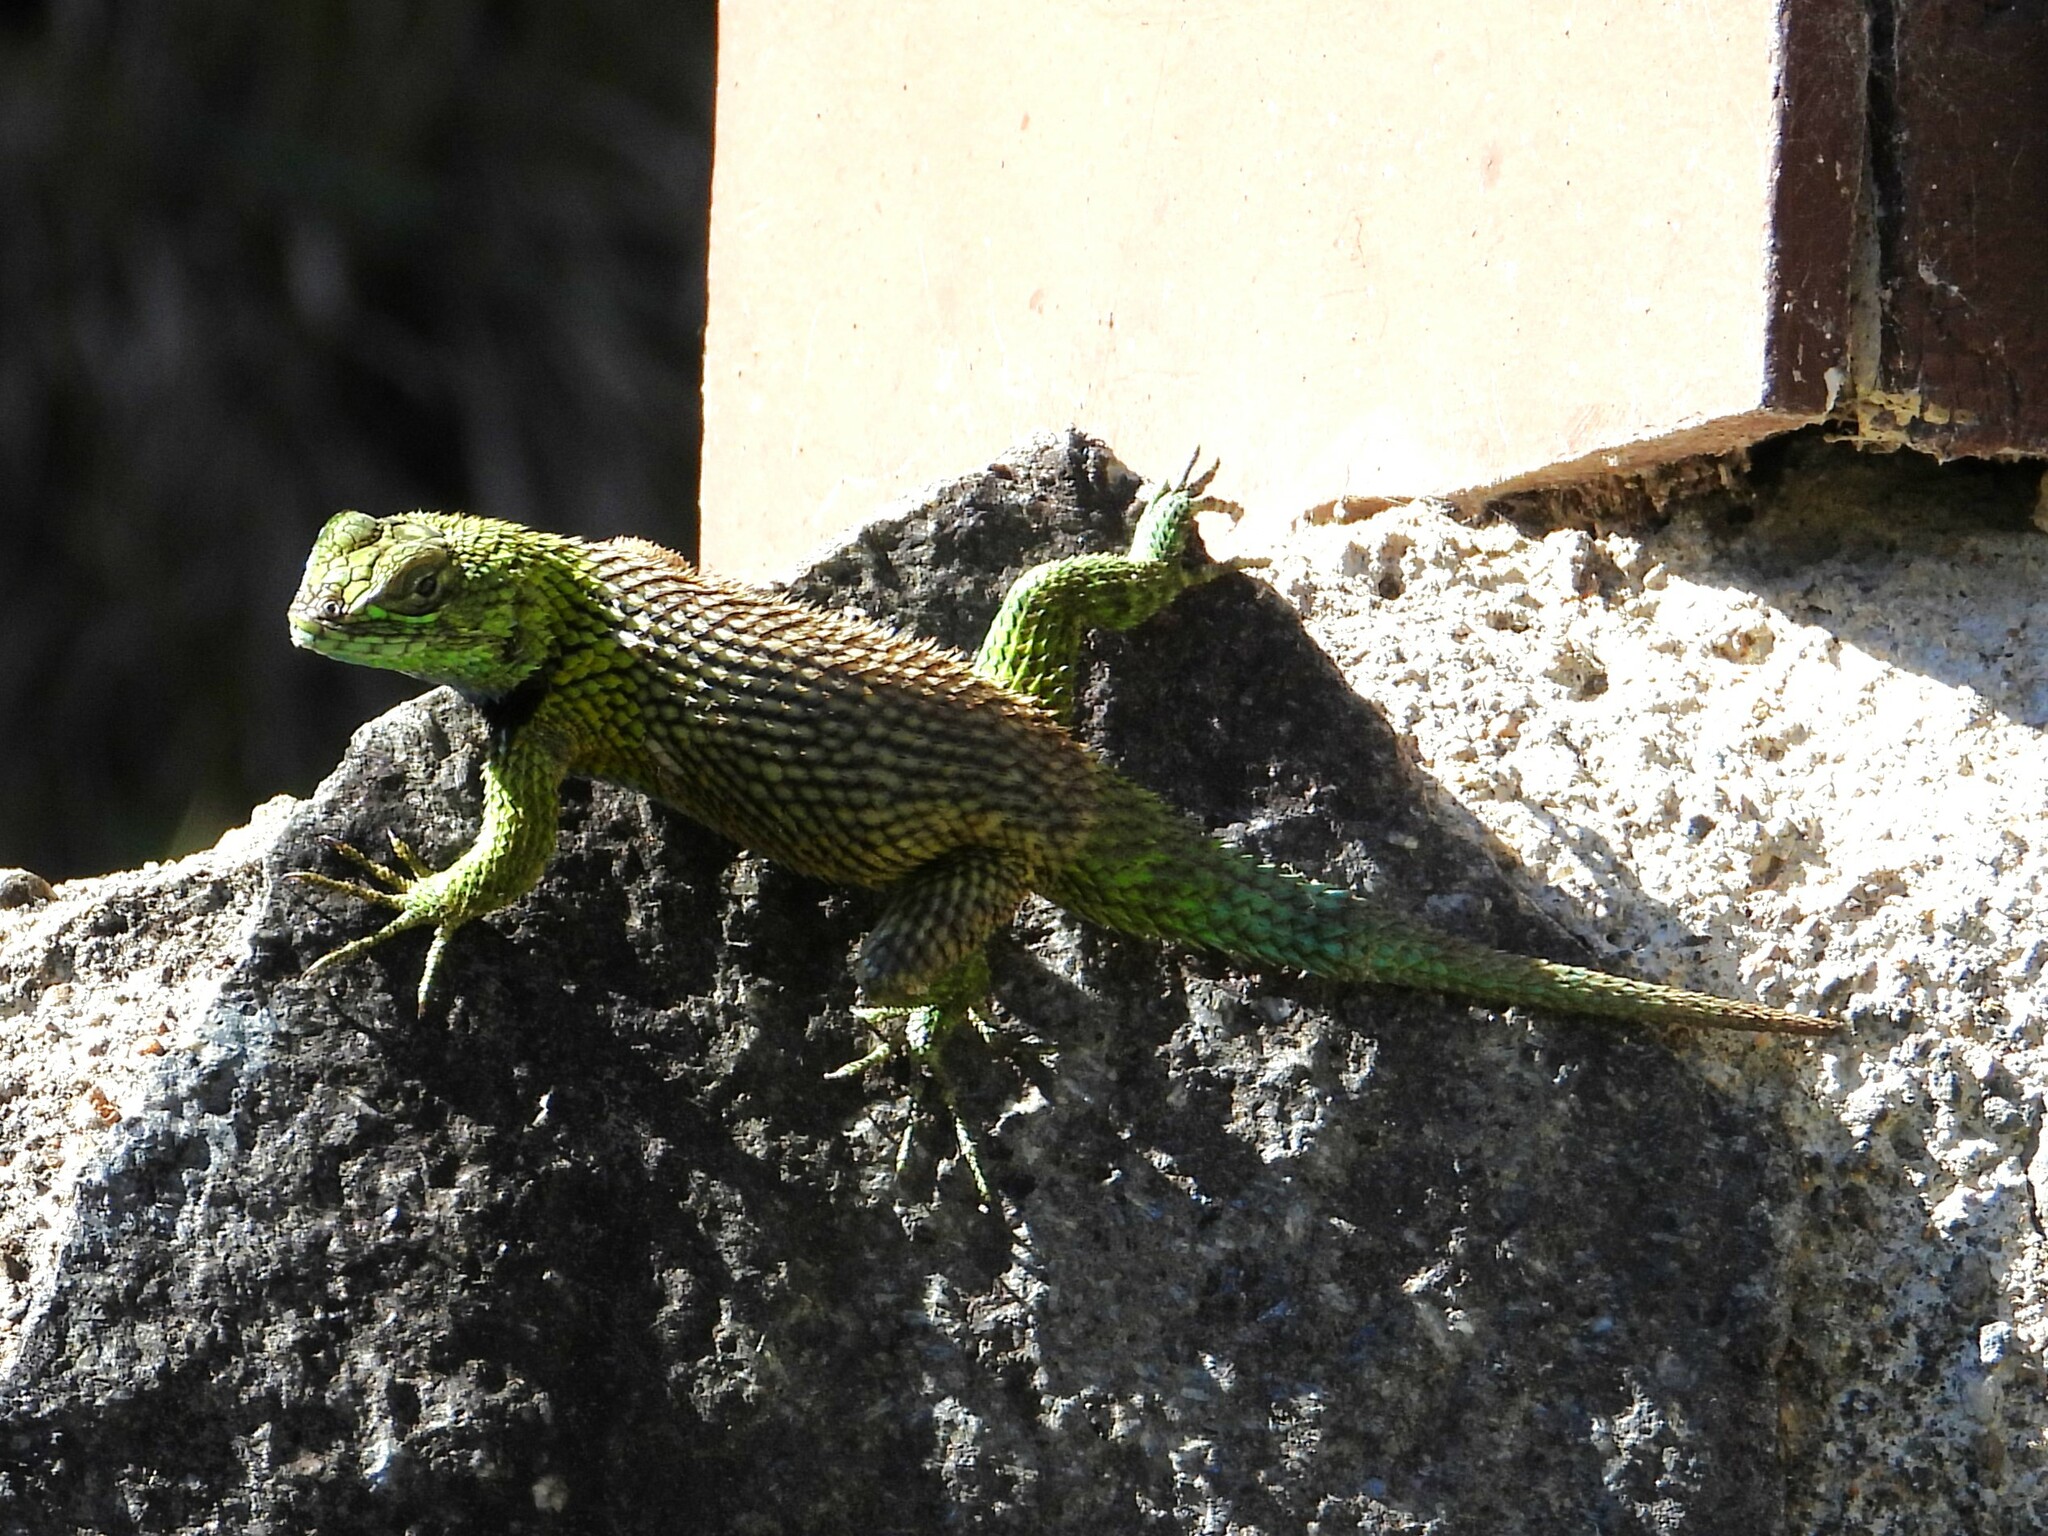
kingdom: Animalia
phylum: Chordata
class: Squamata
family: Phrynosomatidae
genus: Sceloporus
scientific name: Sceloporus malachiticus
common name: Green spiny lizard
